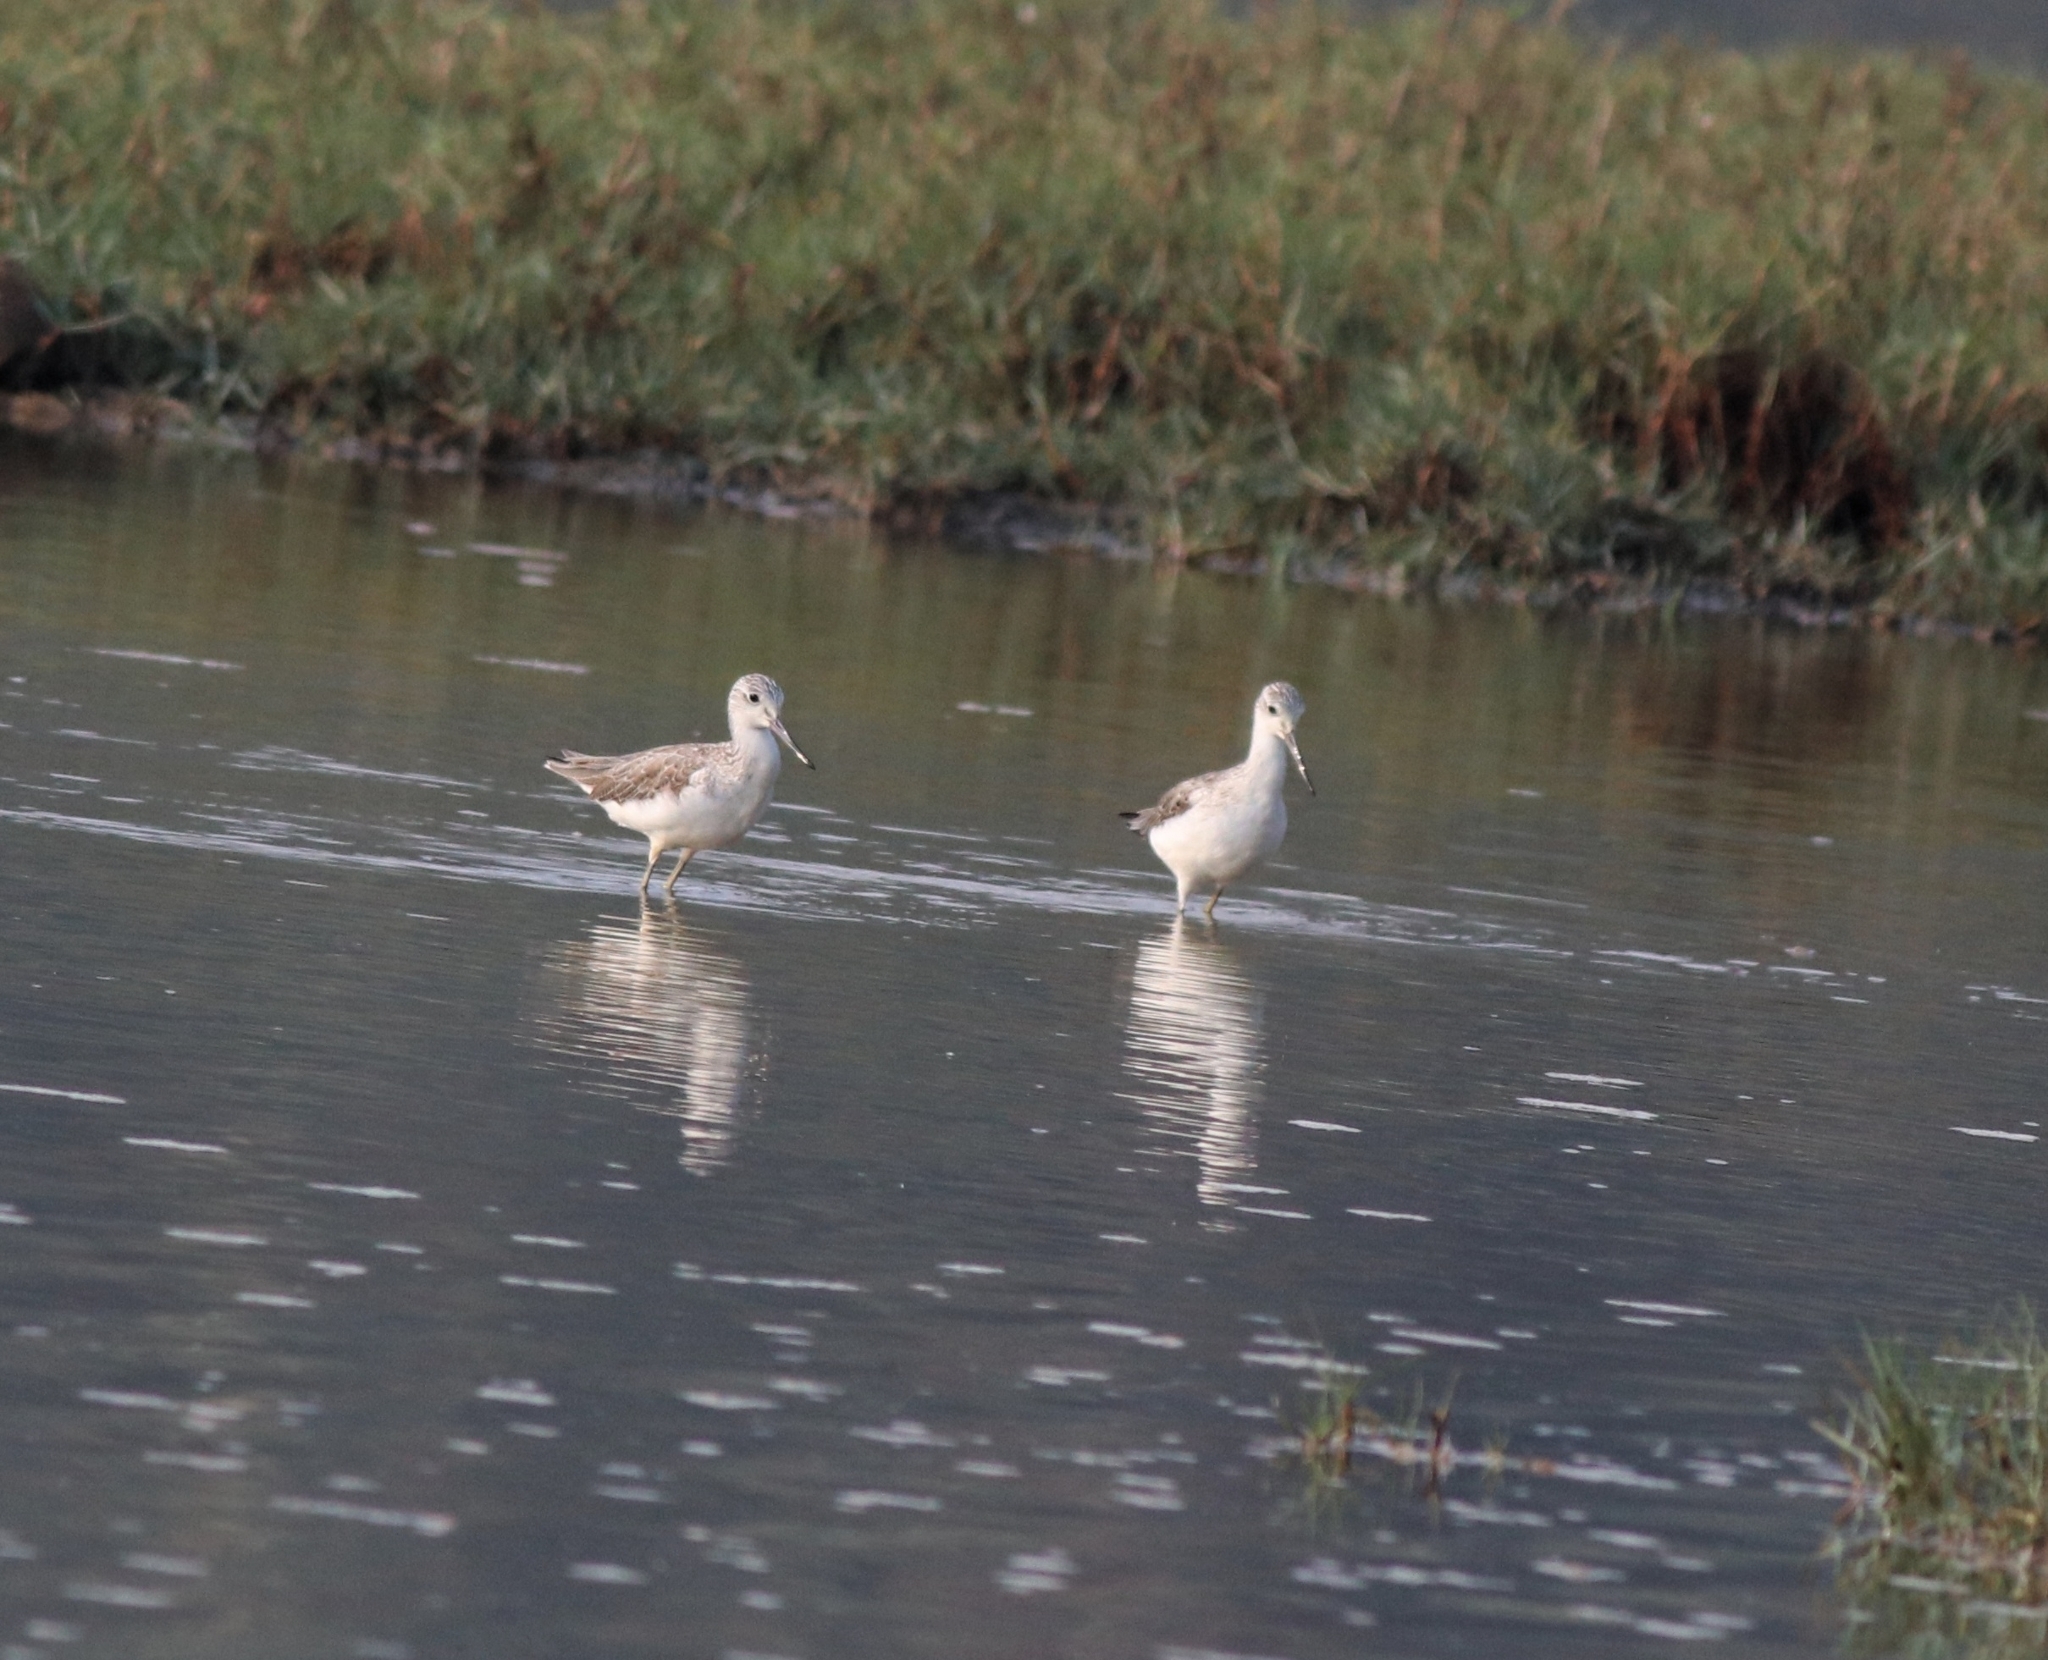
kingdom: Animalia
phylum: Chordata
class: Aves
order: Charadriiformes
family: Scolopacidae
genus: Tringa
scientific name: Tringa nebularia
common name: Common greenshank
